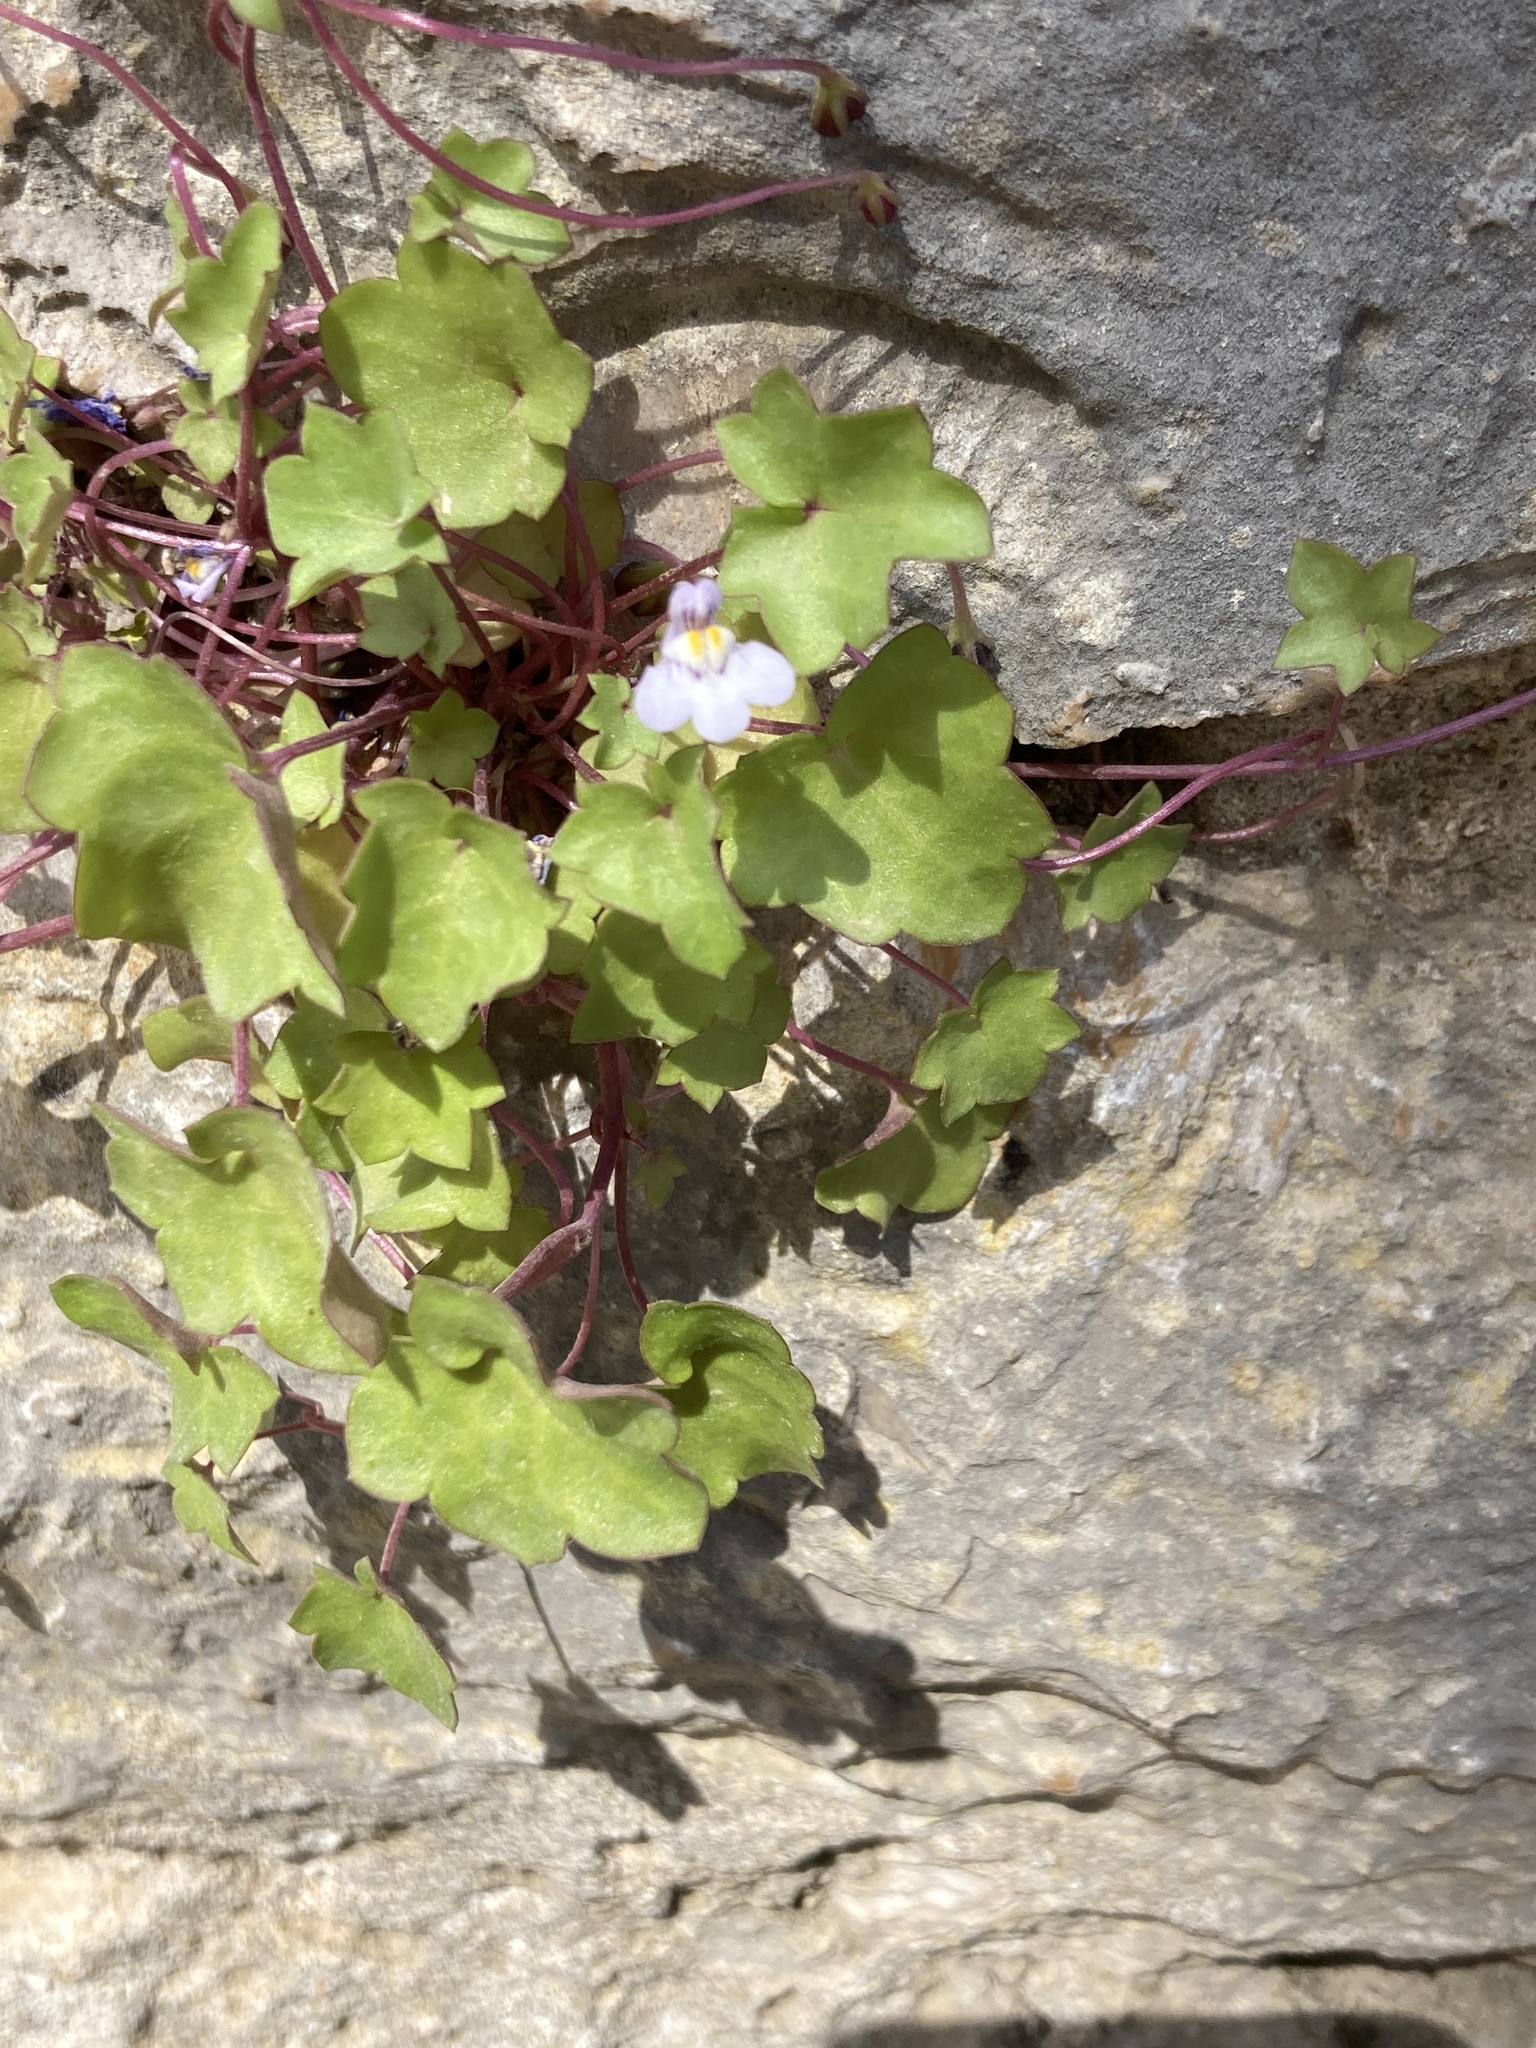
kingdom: Plantae
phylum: Tracheophyta
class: Magnoliopsida
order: Lamiales
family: Plantaginaceae
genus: Cymbalaria
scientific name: Cymbalaria muralis
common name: Ivy-leaved toadflax
